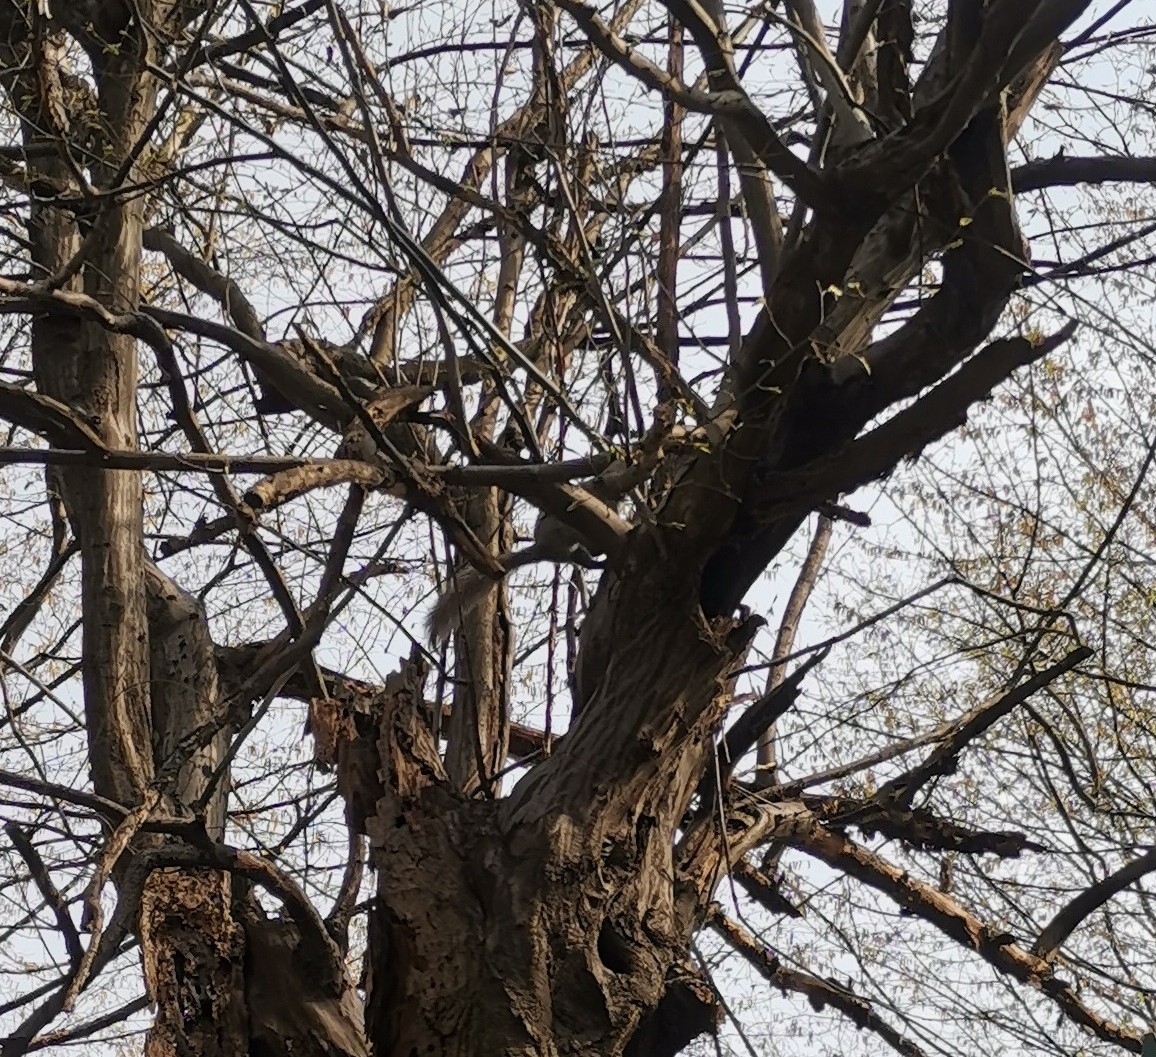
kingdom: Animalia
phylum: Chordata
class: Mammalia
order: Rodentia
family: Sciuridae
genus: Sciurus
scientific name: Sciurus carolinensis
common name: Eastern gray squirrel
